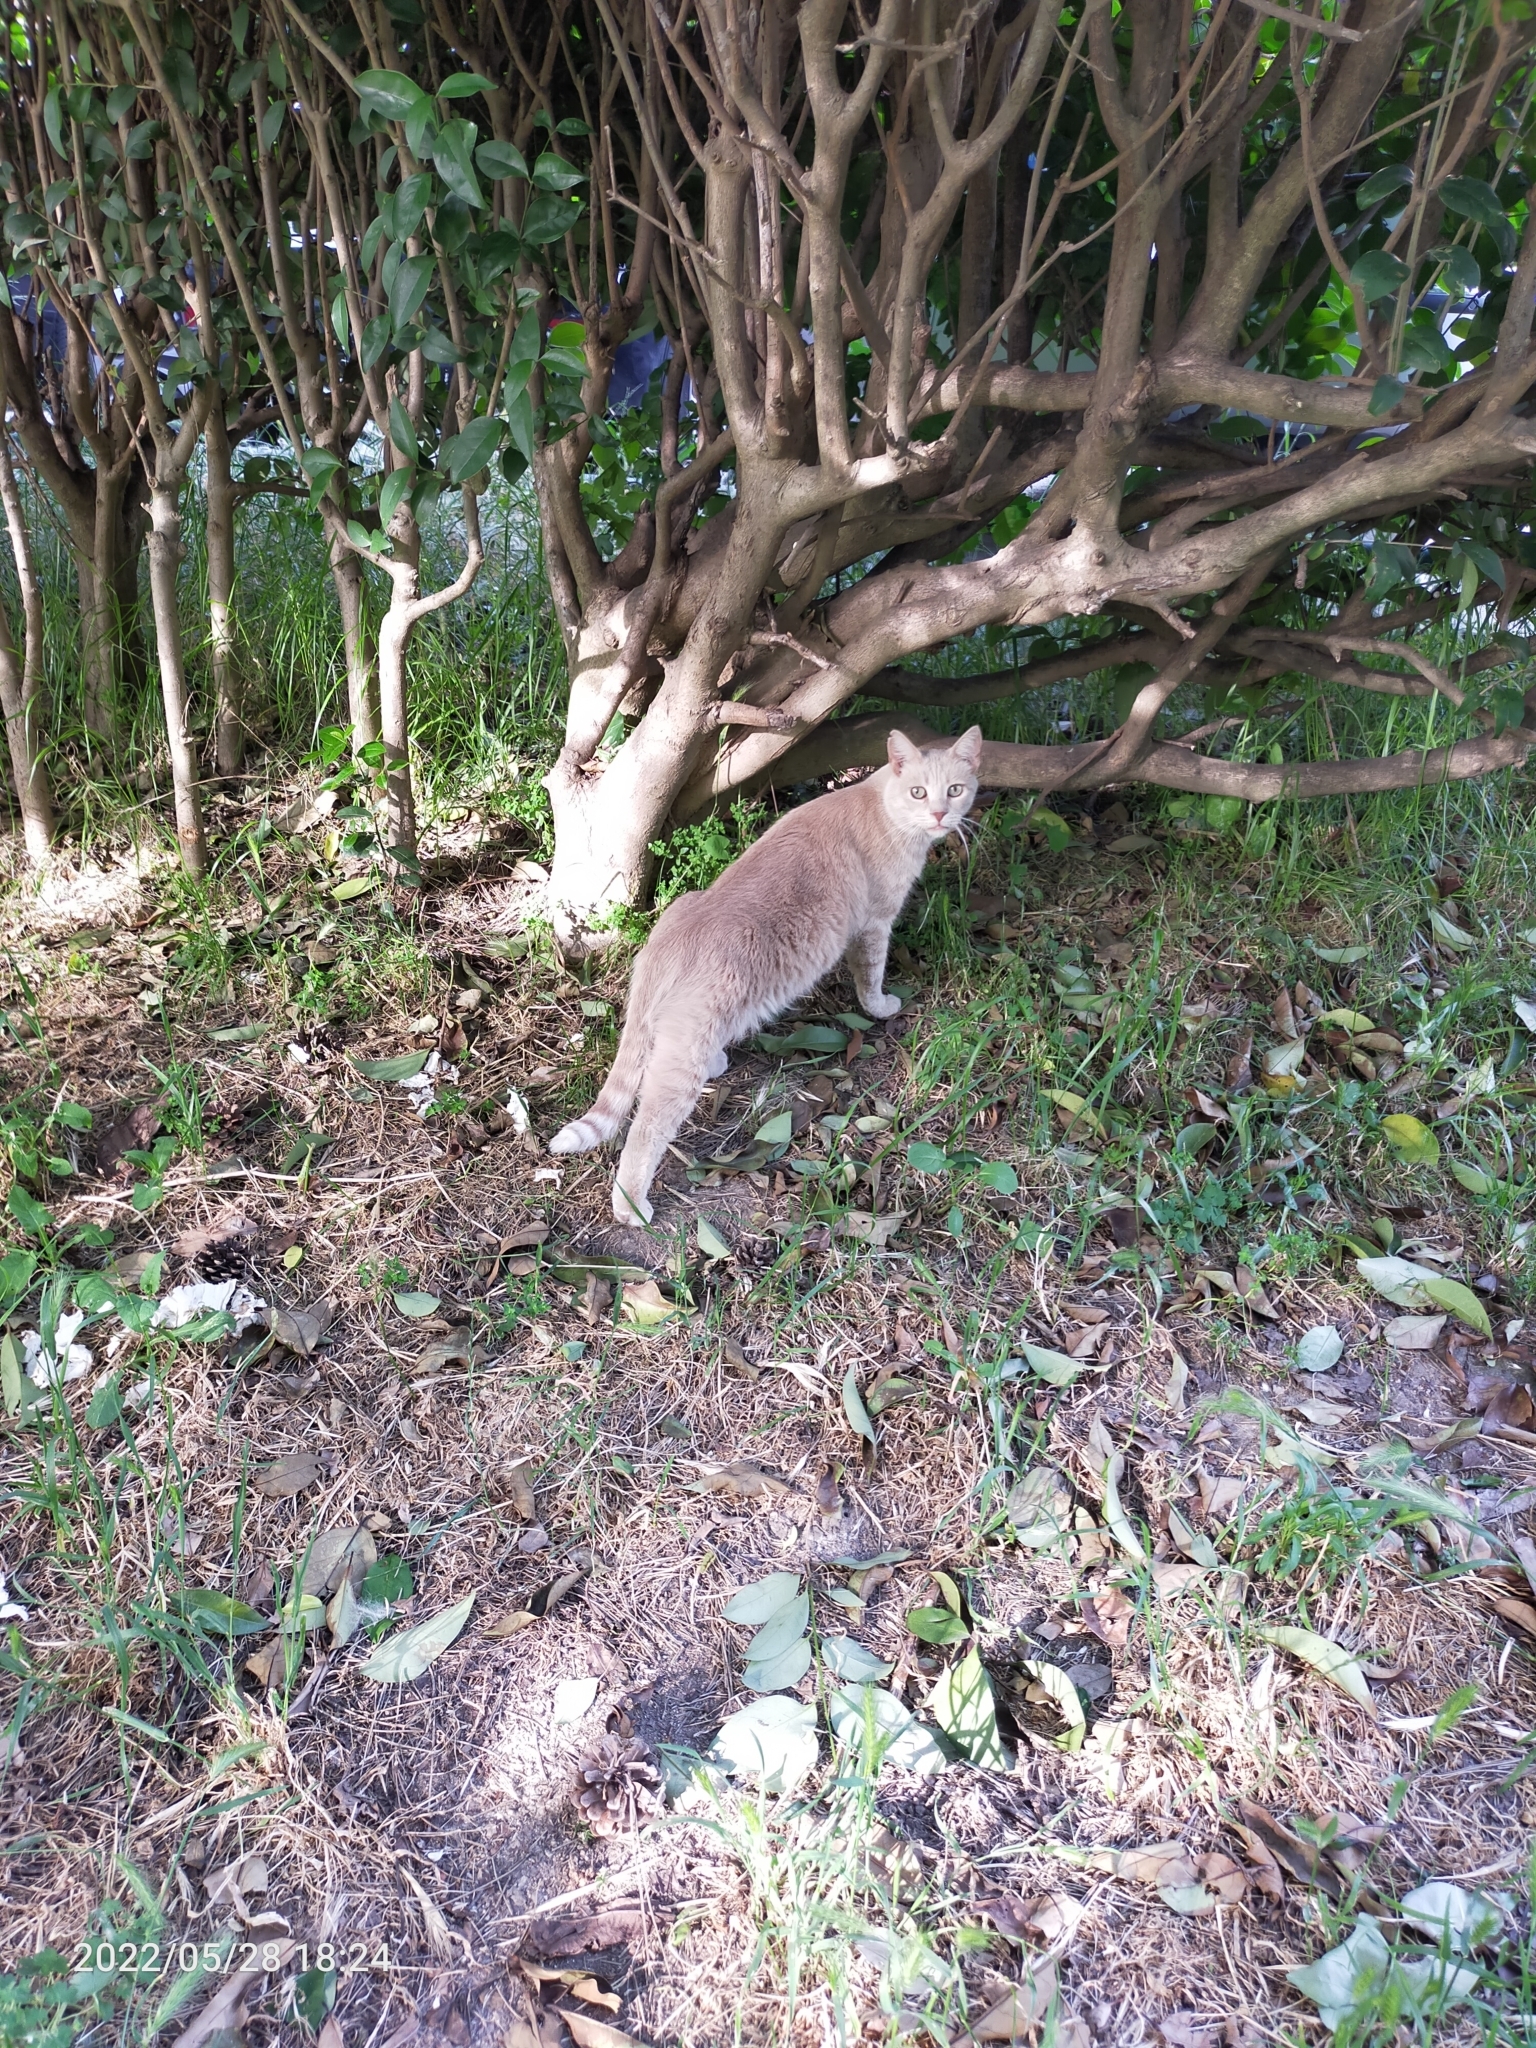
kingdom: Animalia
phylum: Chordata
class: Mammalia
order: Carnivora
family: Felidae
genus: Felis
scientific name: Felis catus
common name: Domestic cat
